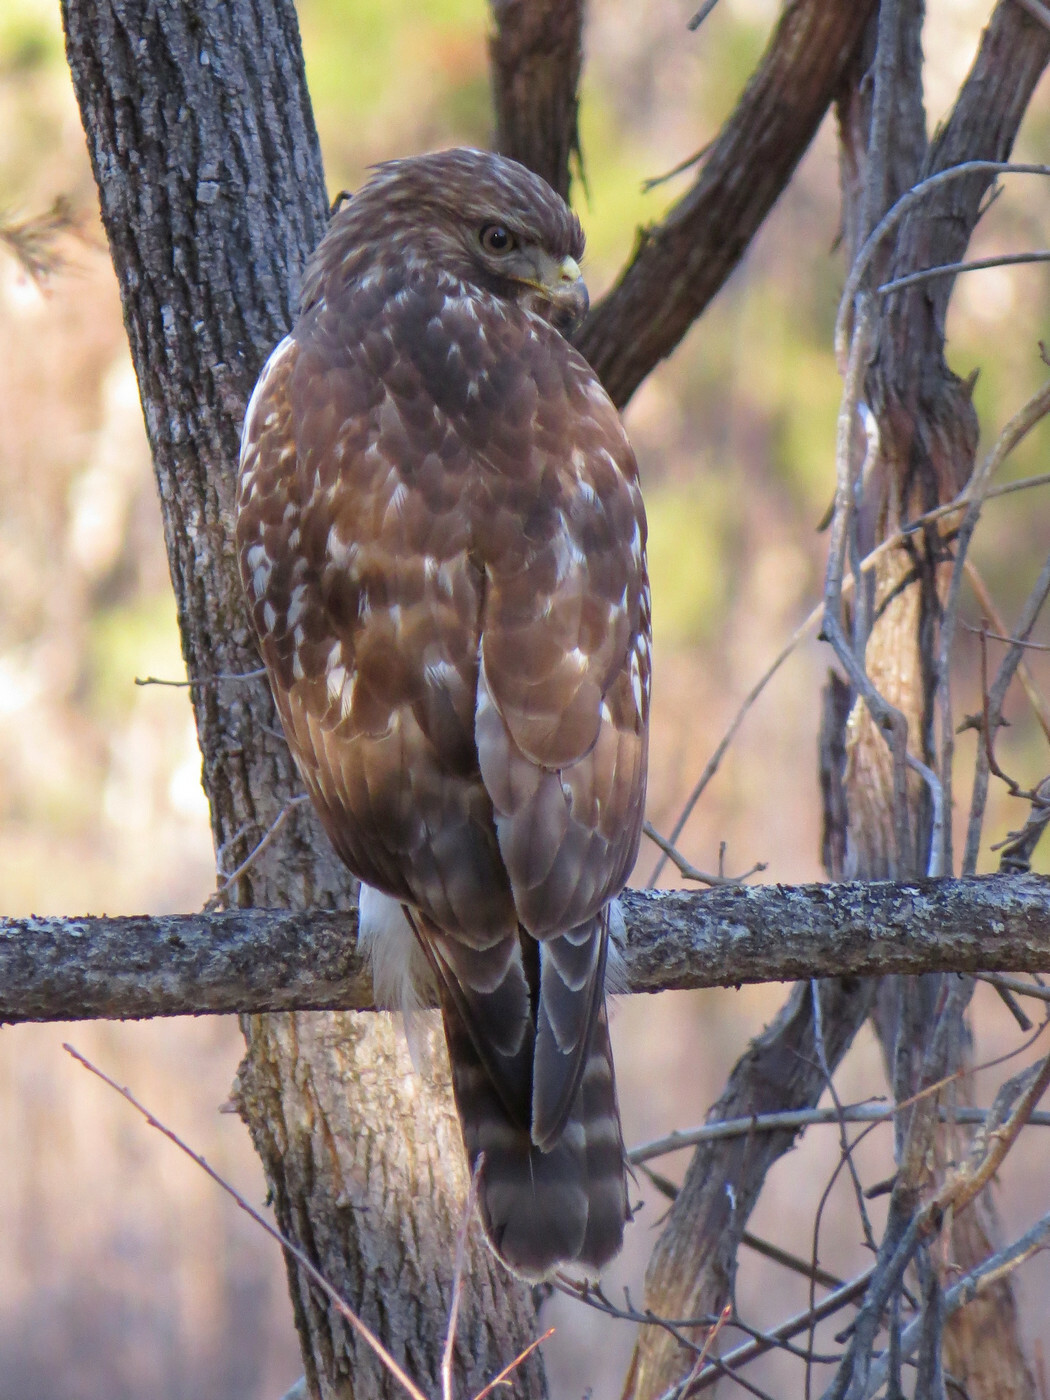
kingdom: Animalia
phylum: Chordata
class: Aves
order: Accipitriformes
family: Accipitridae
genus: Buteo
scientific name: Buteo lineatus
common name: Red-shouldered hawk
